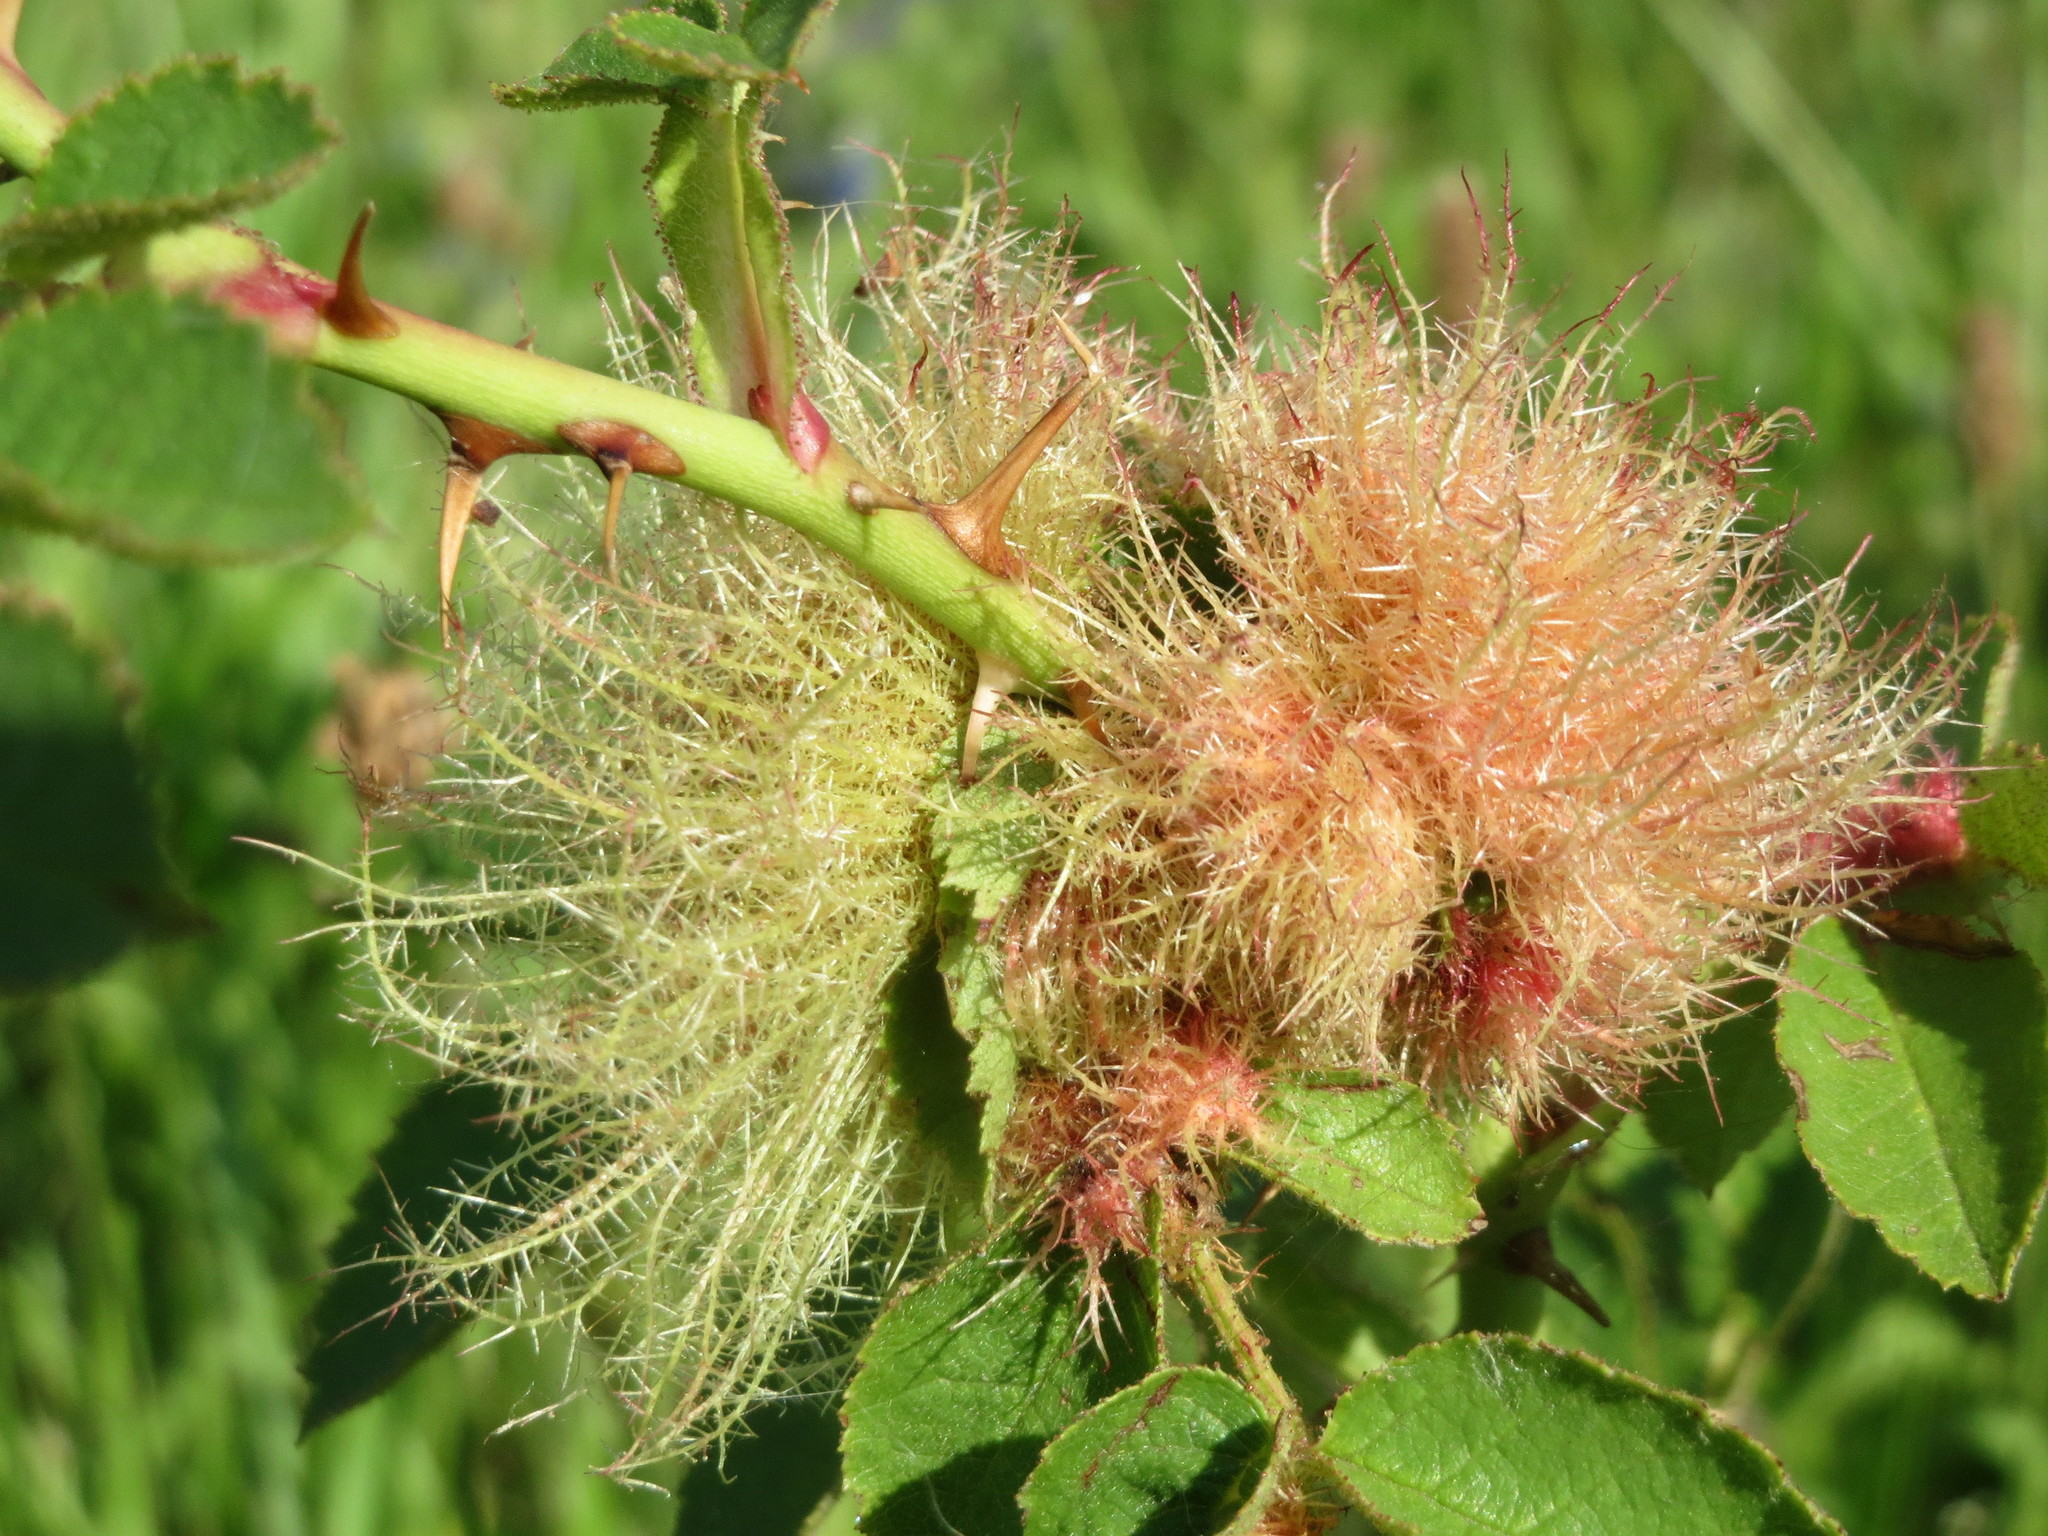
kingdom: Animalia
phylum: Arthropoda
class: Insecta
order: Hymenoptera
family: Cynipidae
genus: Diplolepis
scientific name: Diplolepis rosae
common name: Bedeguar gall
